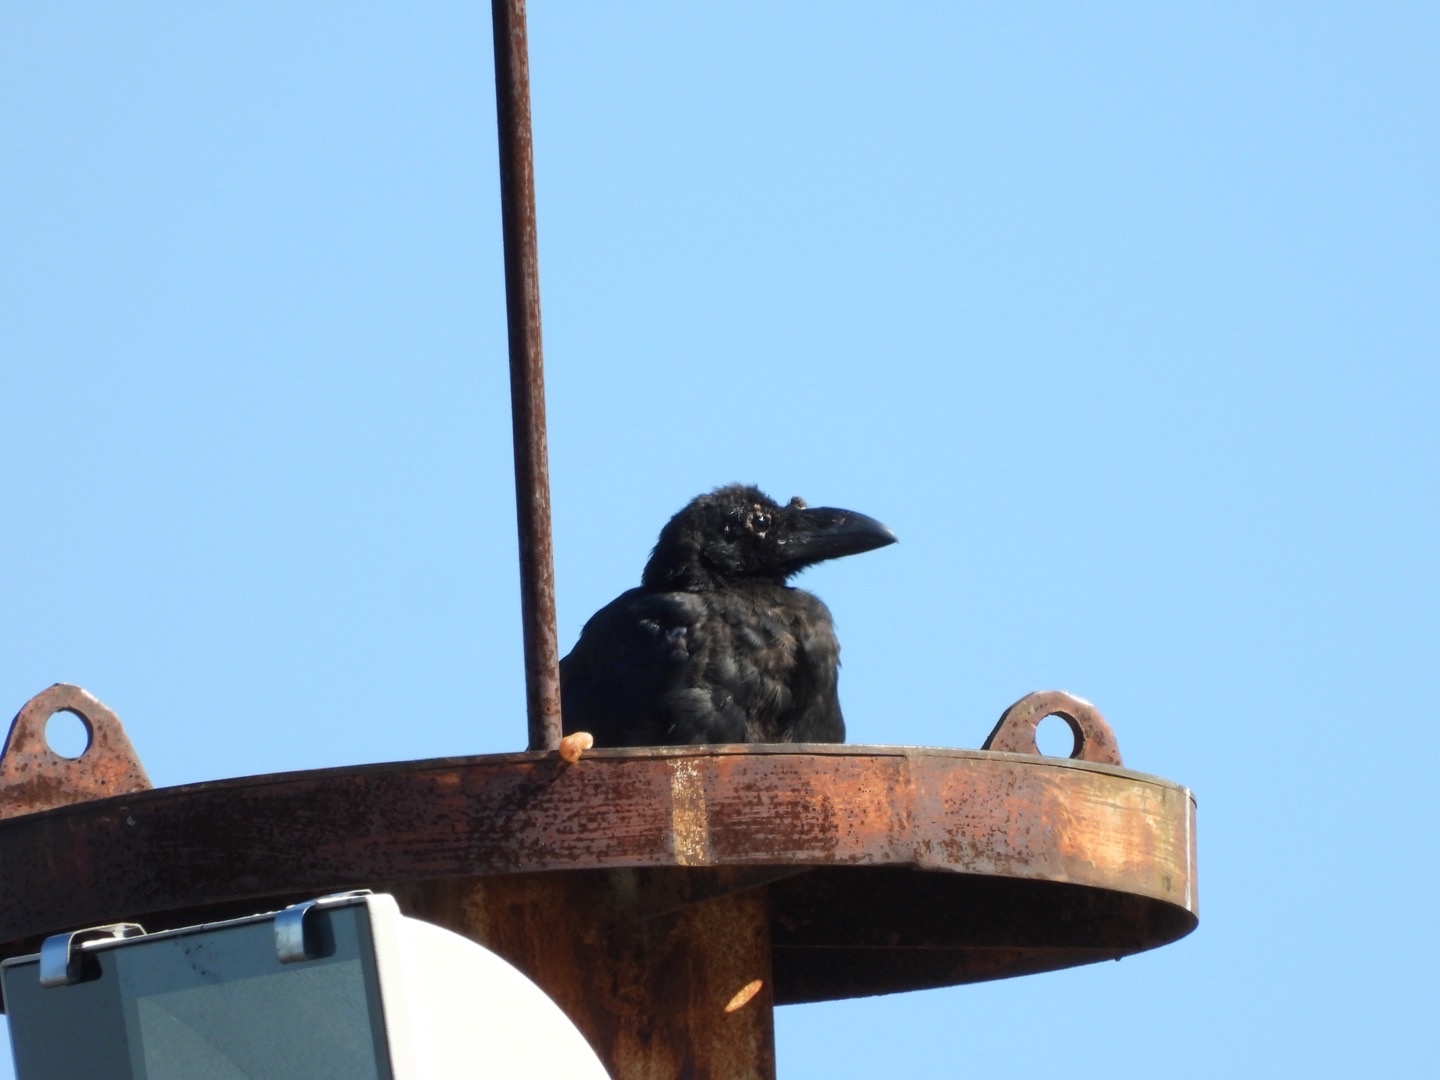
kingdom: Animalia
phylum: Chordata
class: Aves
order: Passeriformes
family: Corvidae
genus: Corvus
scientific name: Corvus macrorhynchos
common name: Large-billed crow
